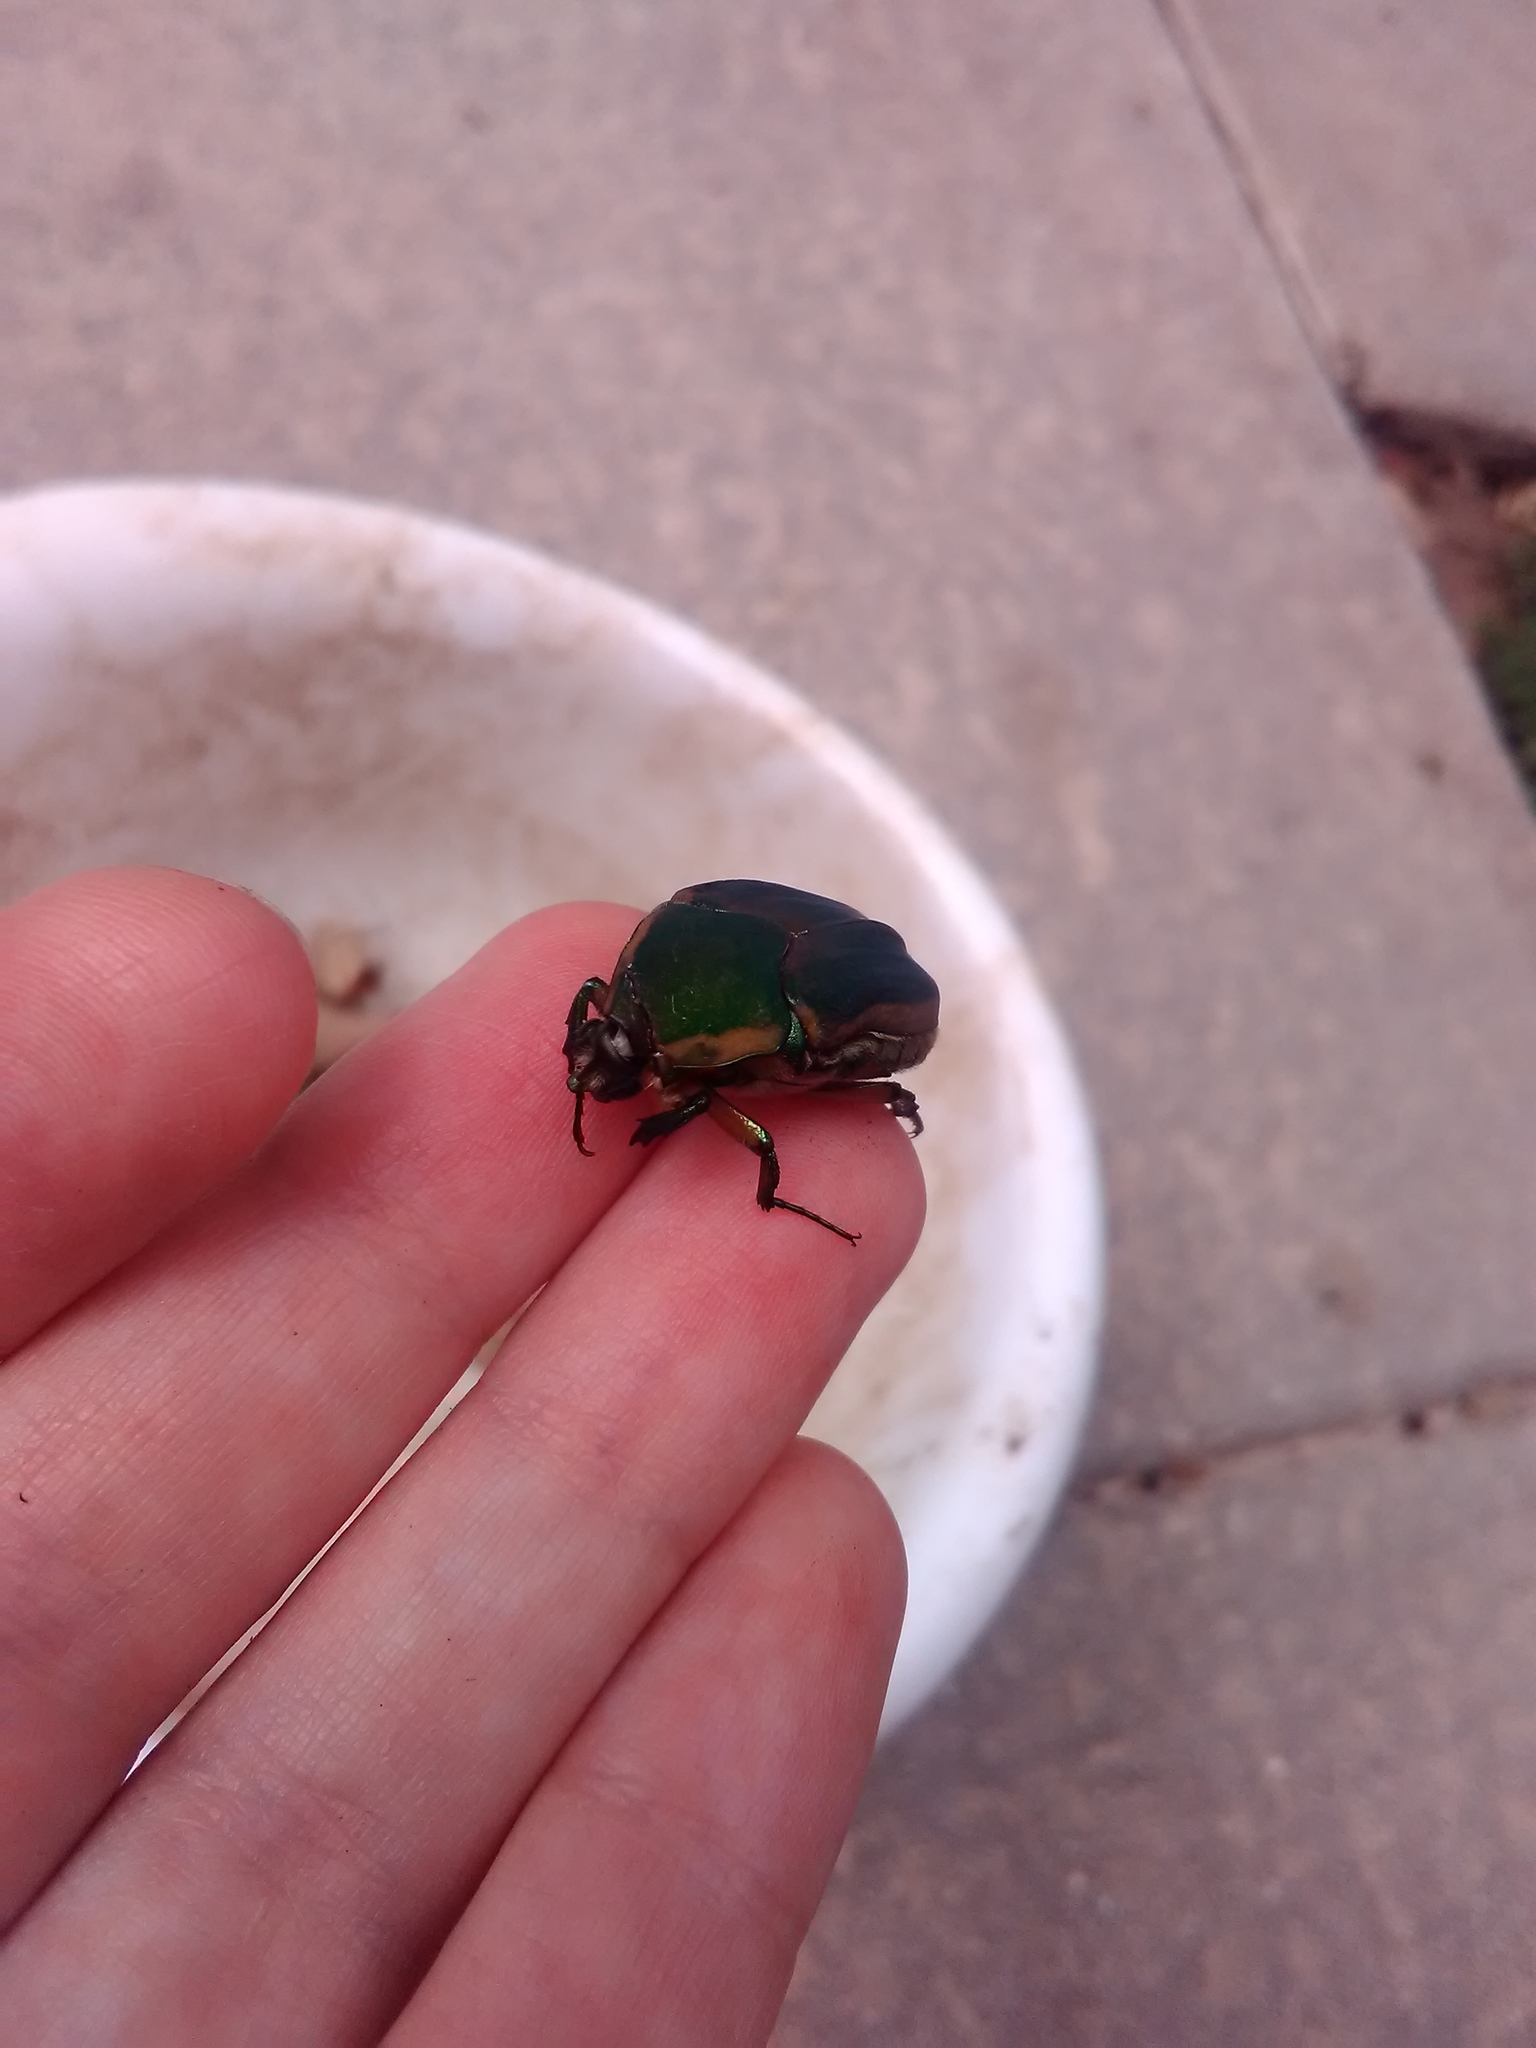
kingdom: Animalia
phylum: Arthropoda
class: Insecta
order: Coleoptera
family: Scarabaeidae
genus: Cotinis
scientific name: Cotinis nitida
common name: Common green june beetle
